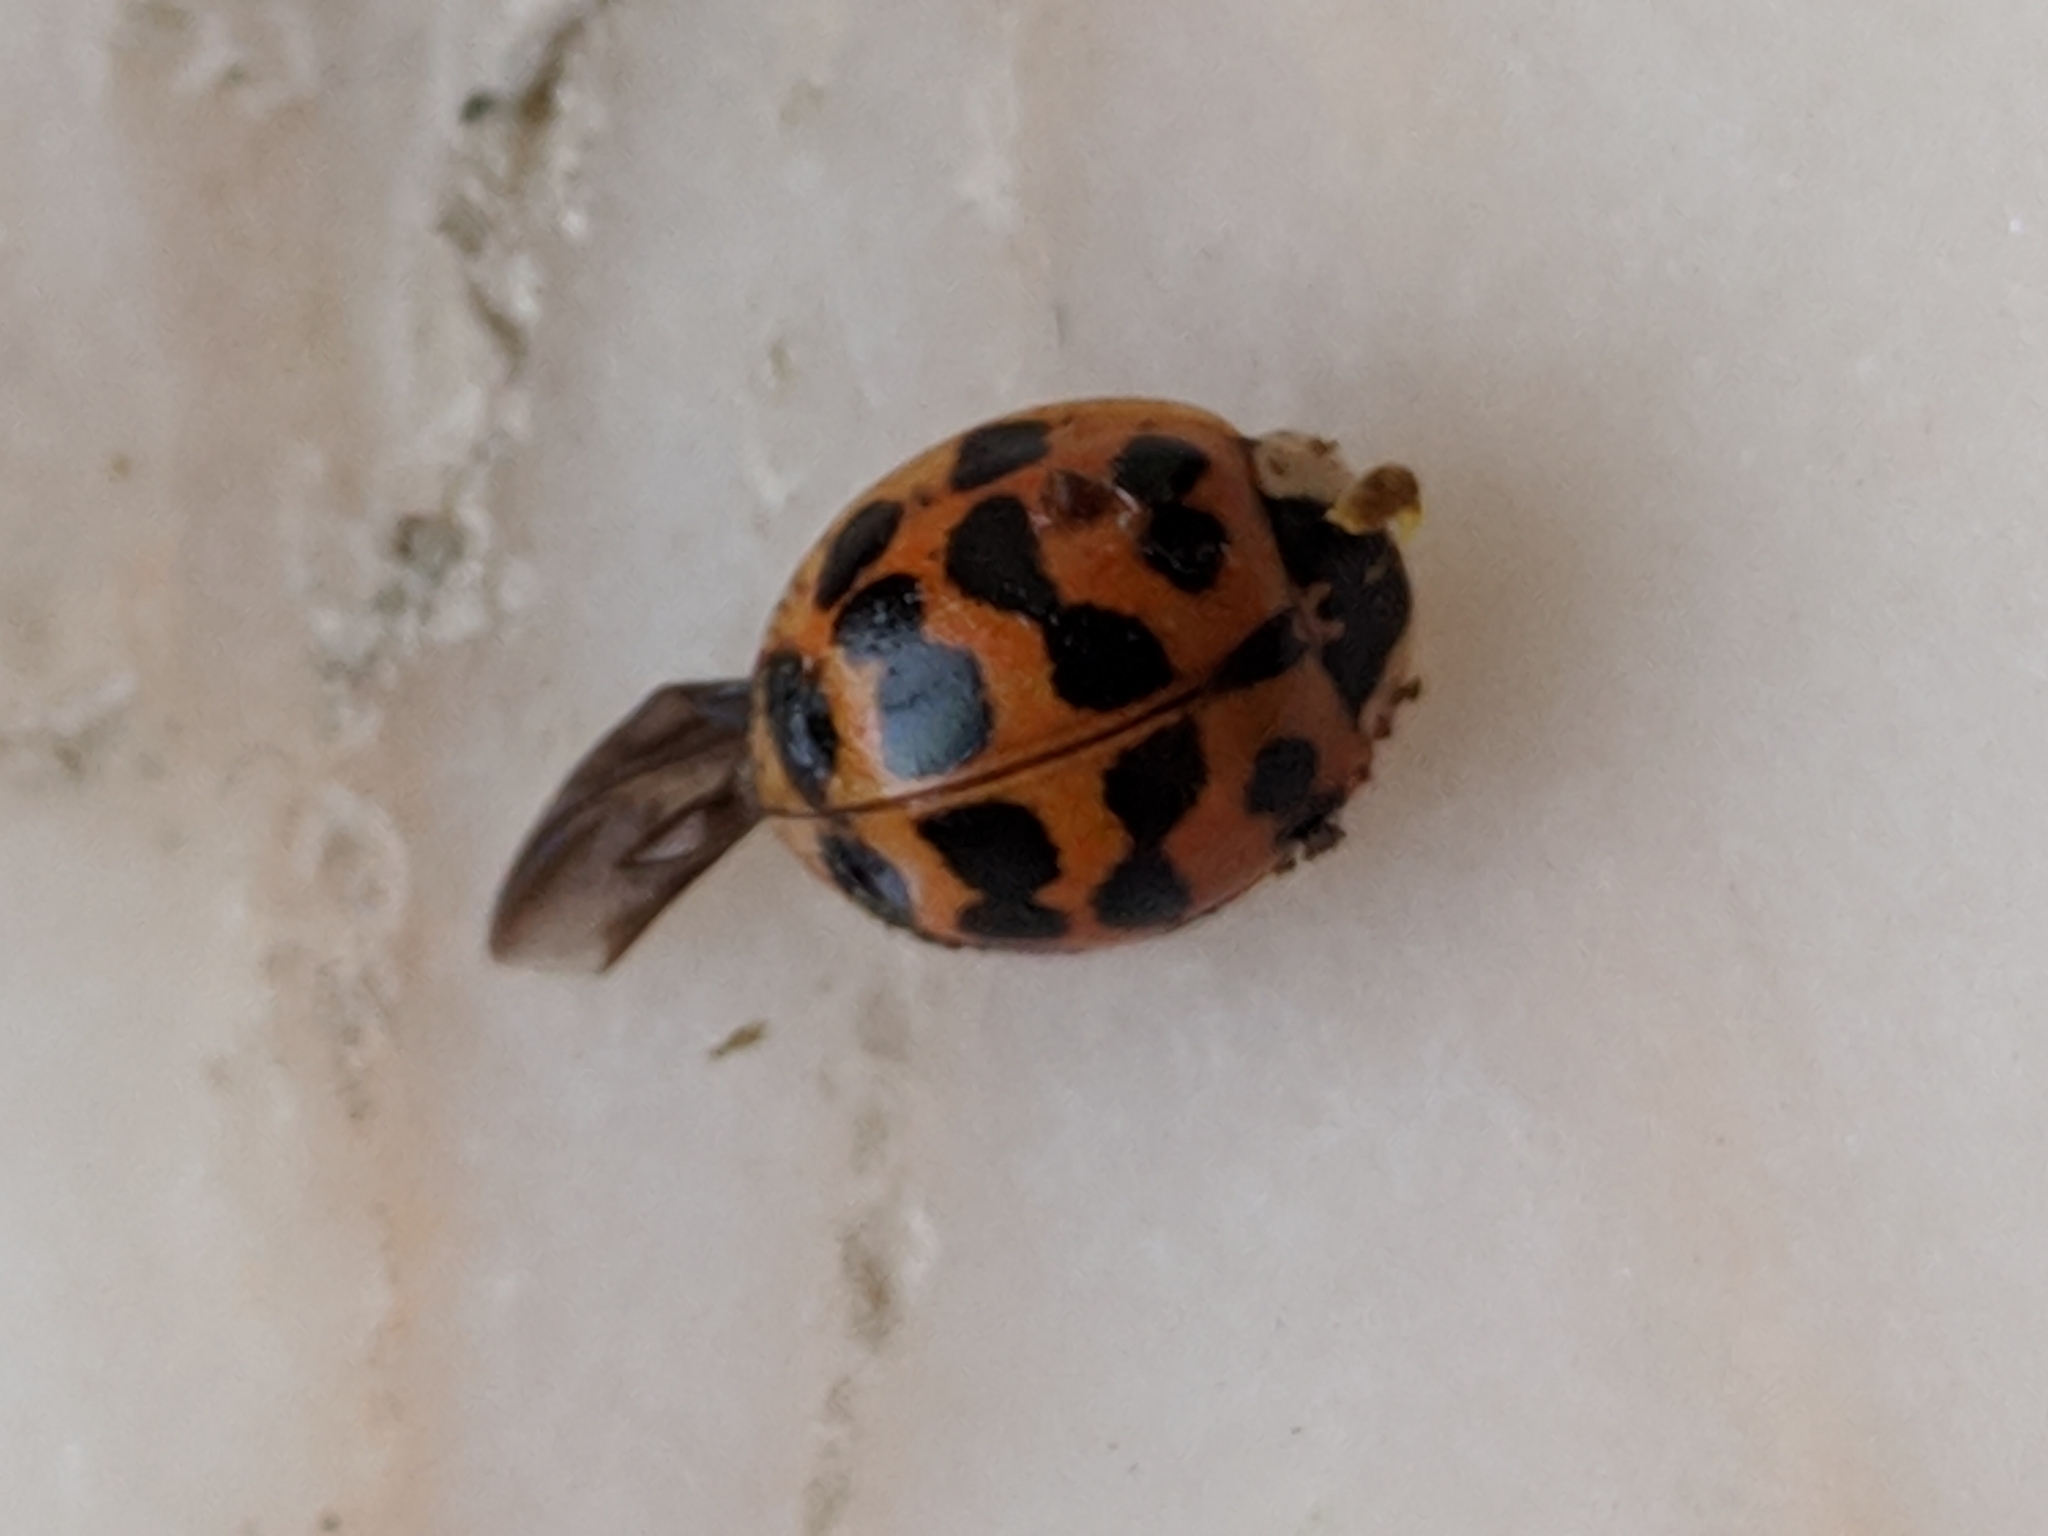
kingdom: Animalia
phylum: Arthropoda
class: Insecta
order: Coleoptera
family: Coccinellidae
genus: Harmonia
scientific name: Harmonia axyridis
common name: Harlequin ladybird
